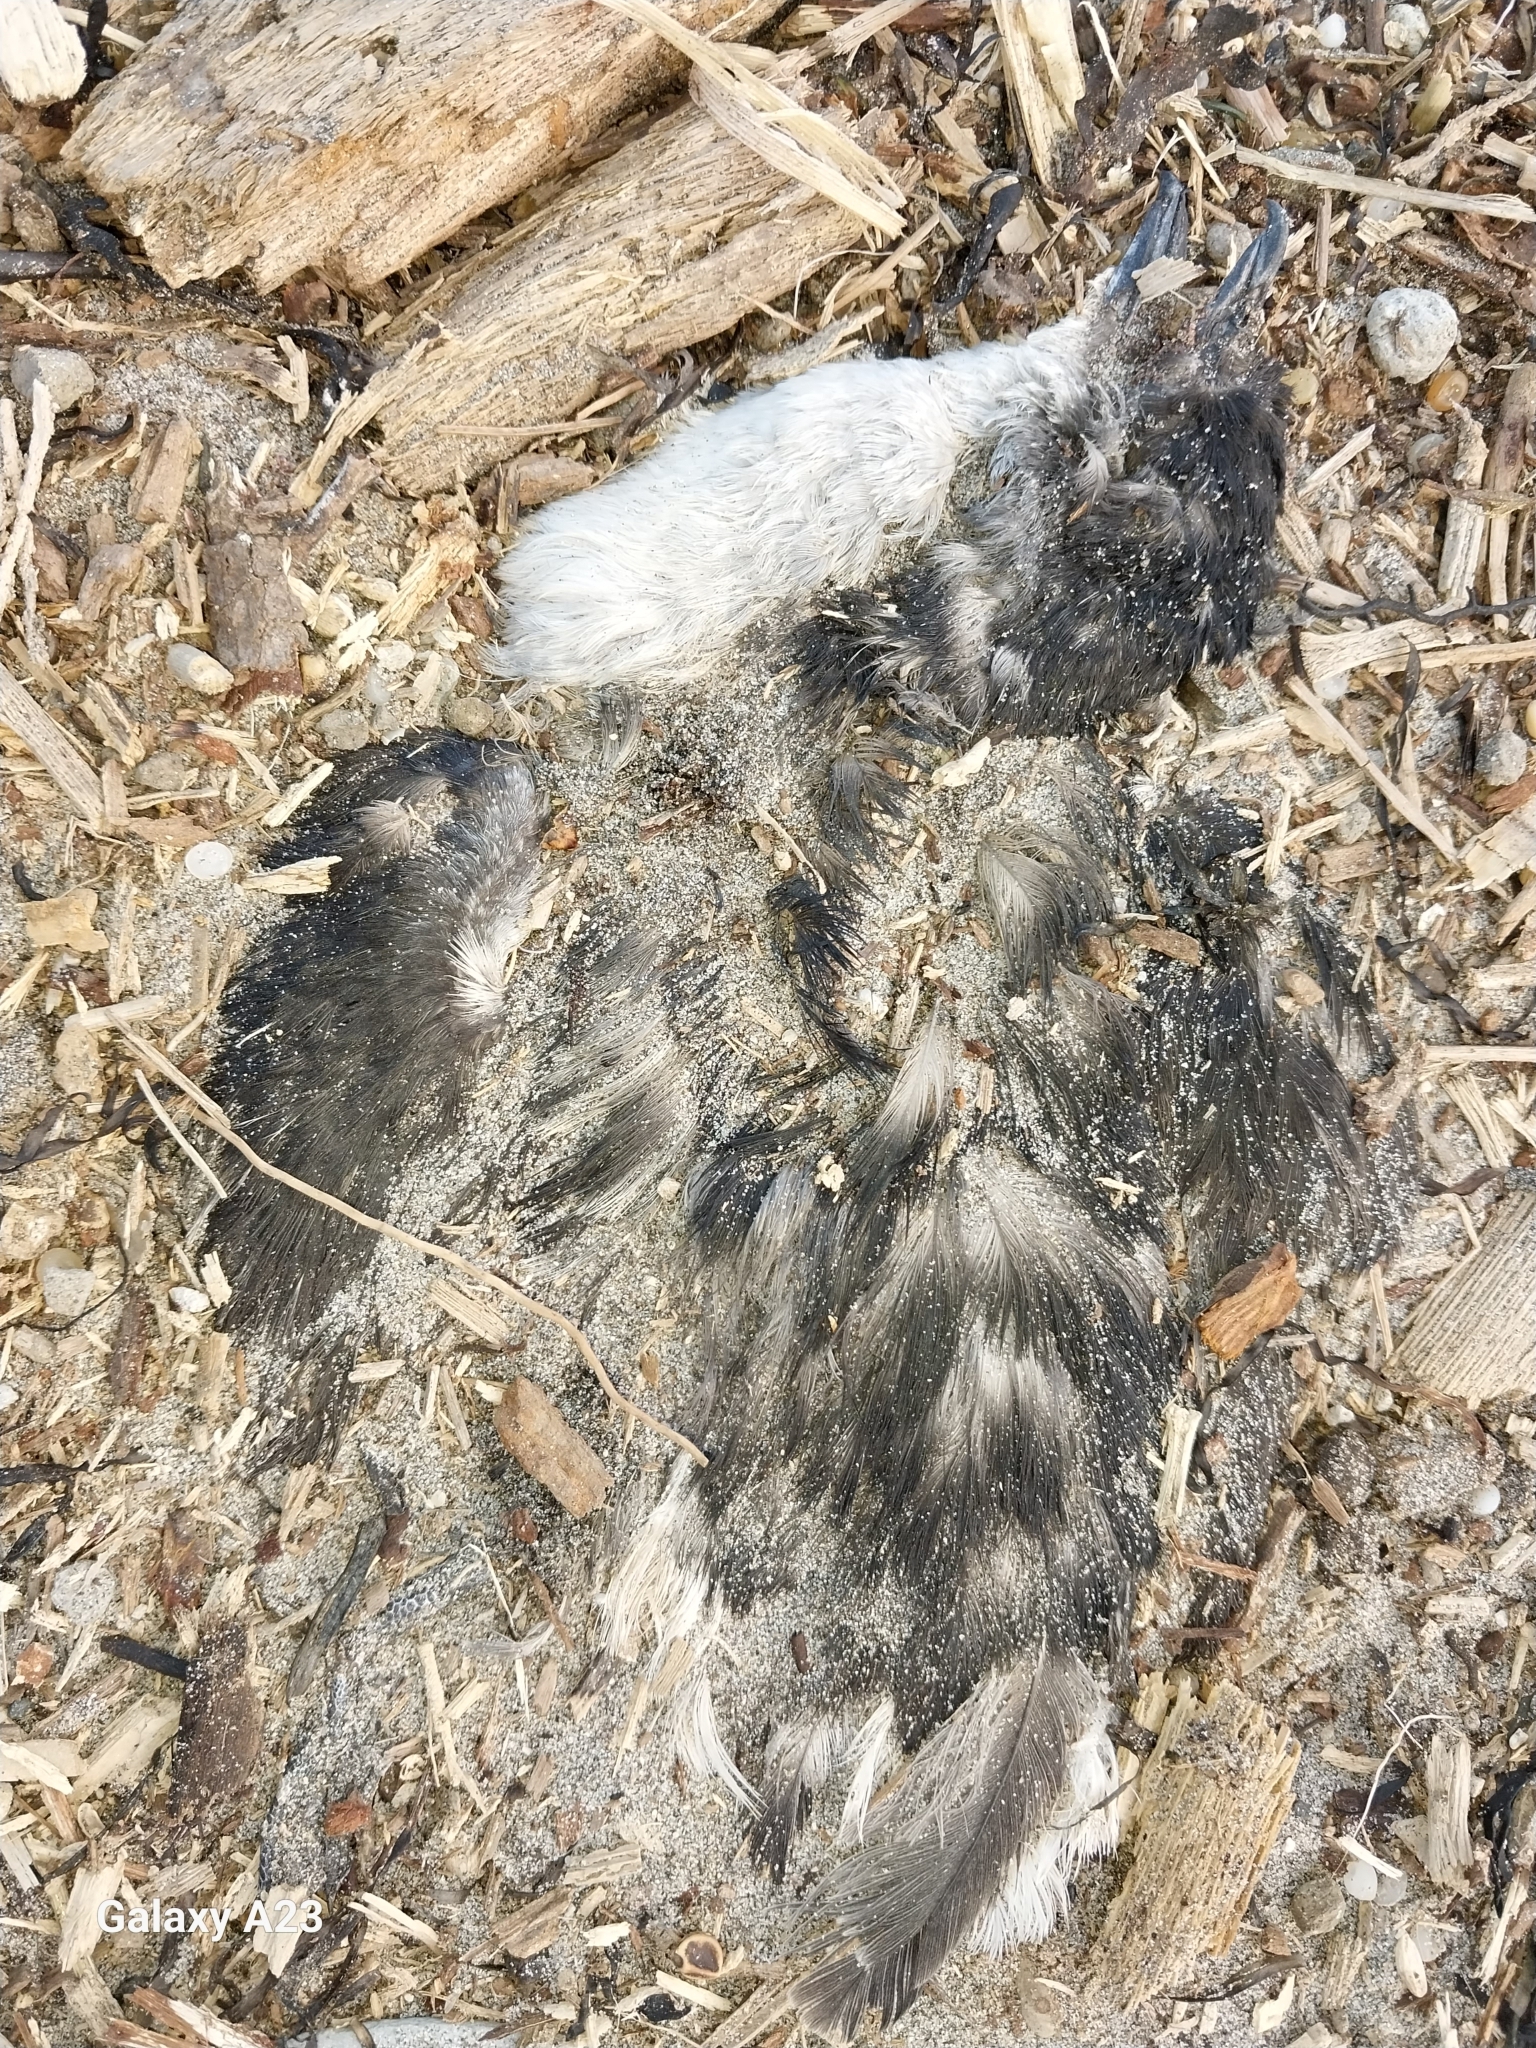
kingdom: Animalia
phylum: Chordata
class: Aves
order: Procellariiformes
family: Pelecanoididae
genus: Pelecanoides
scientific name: Pelecanoides urinatrix
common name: Common diving-petrel
